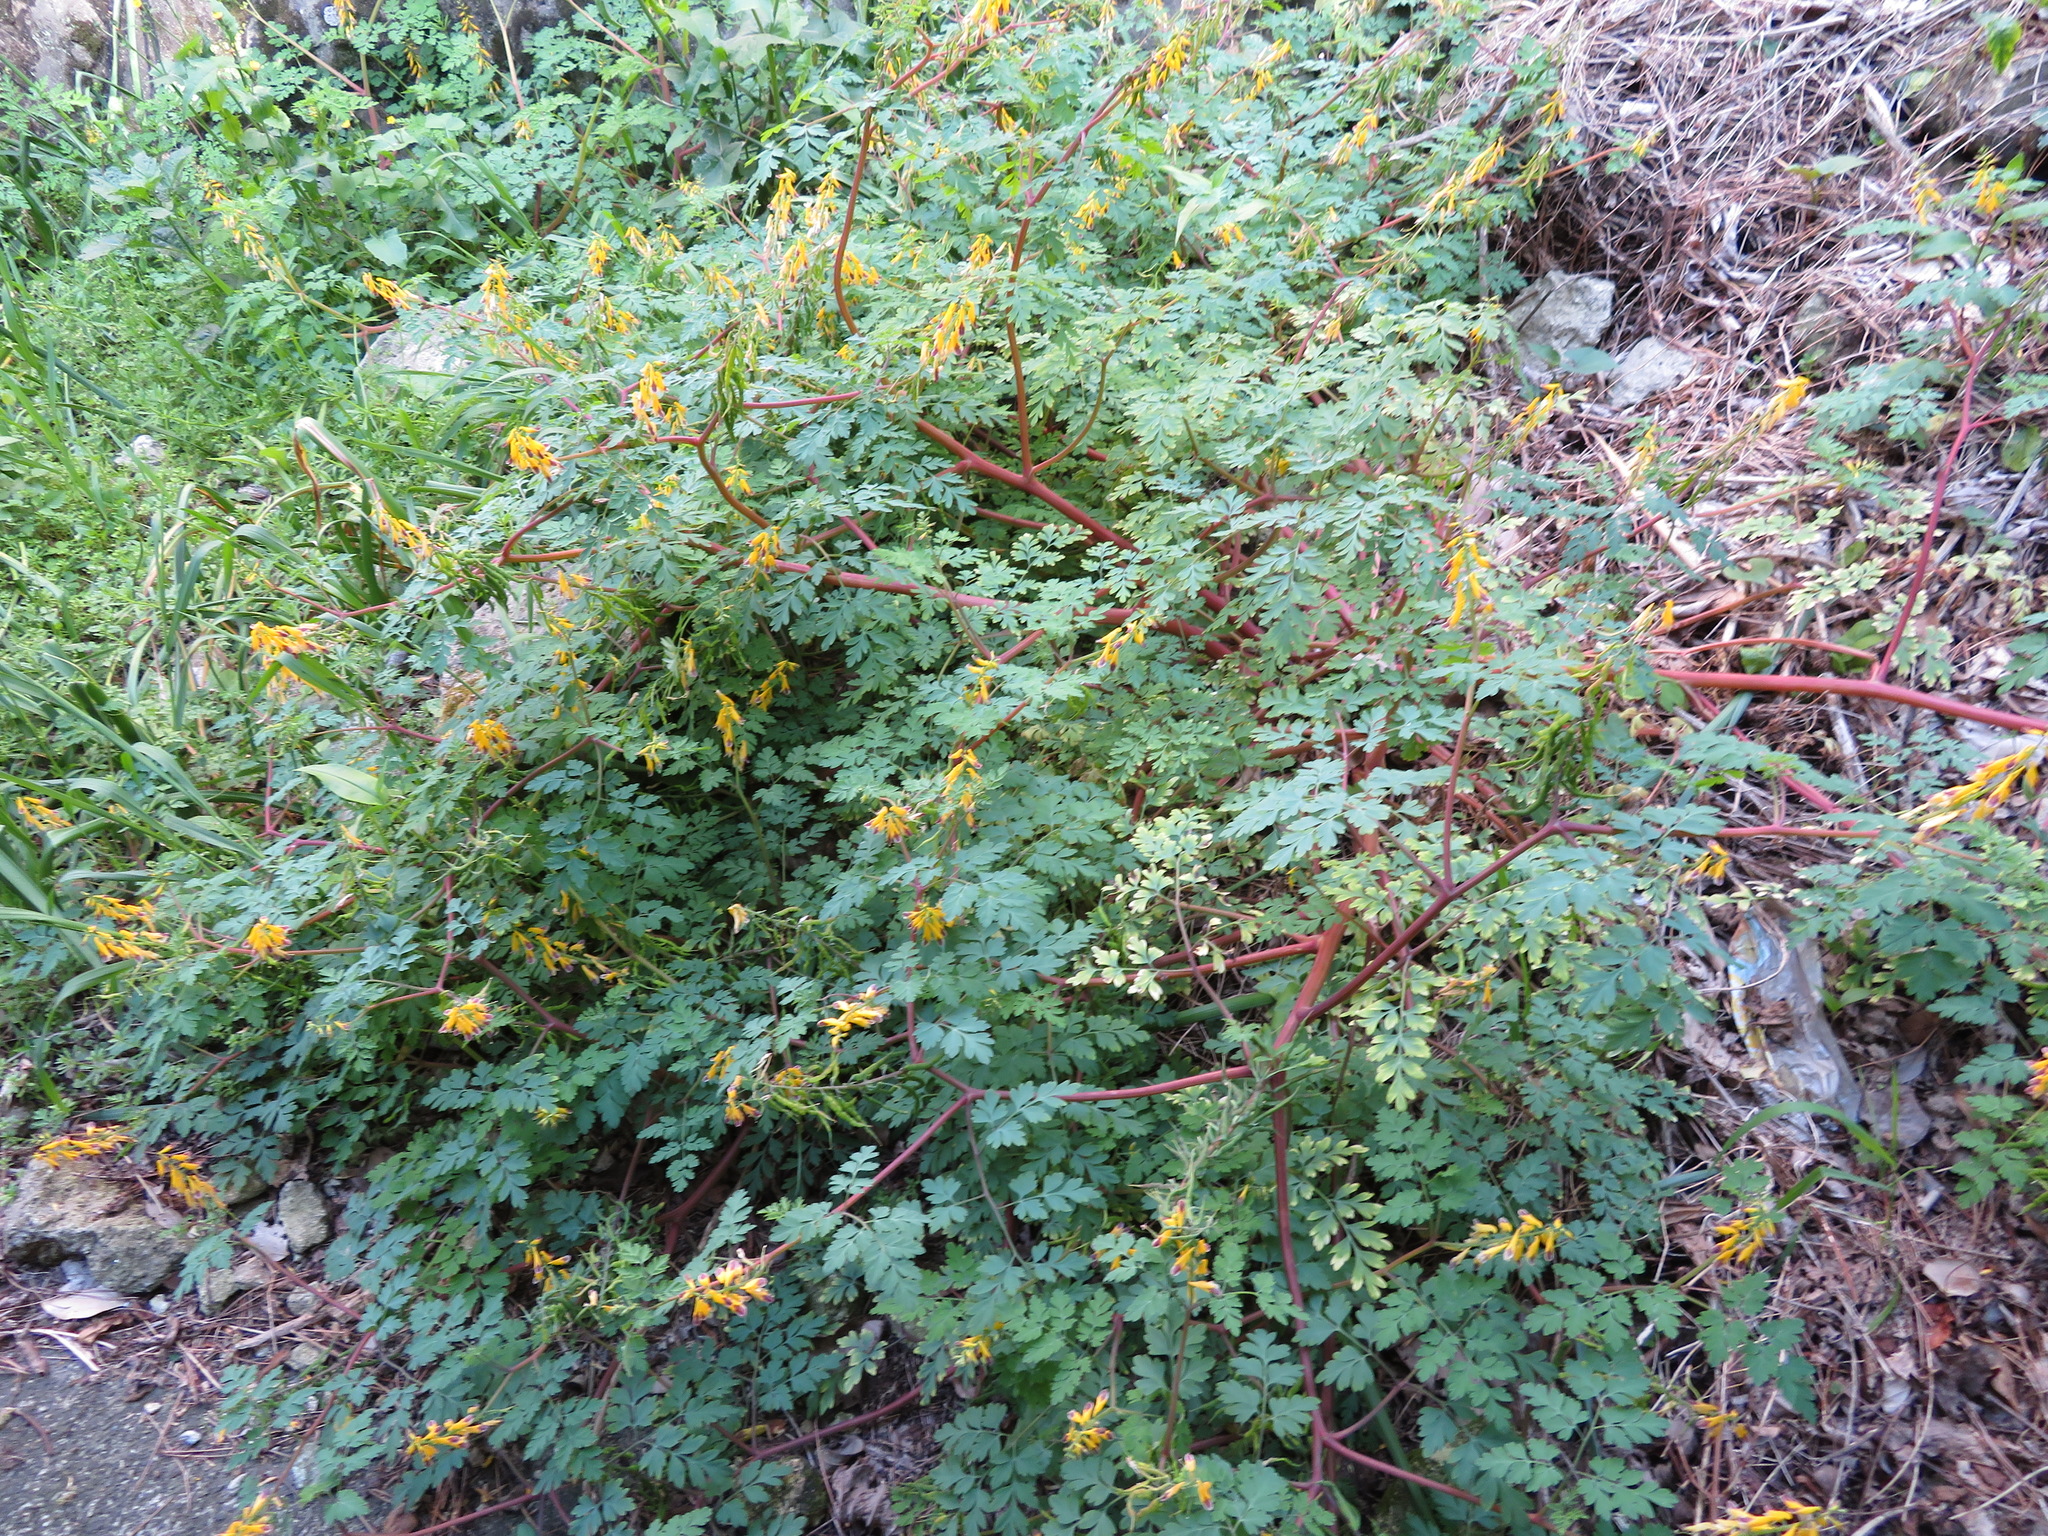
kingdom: Plantae
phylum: Tracheophyta
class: Magnoliopsida
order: Ranunculales
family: Papaveraceae
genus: Corydalis
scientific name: Corydalis platycarpa
